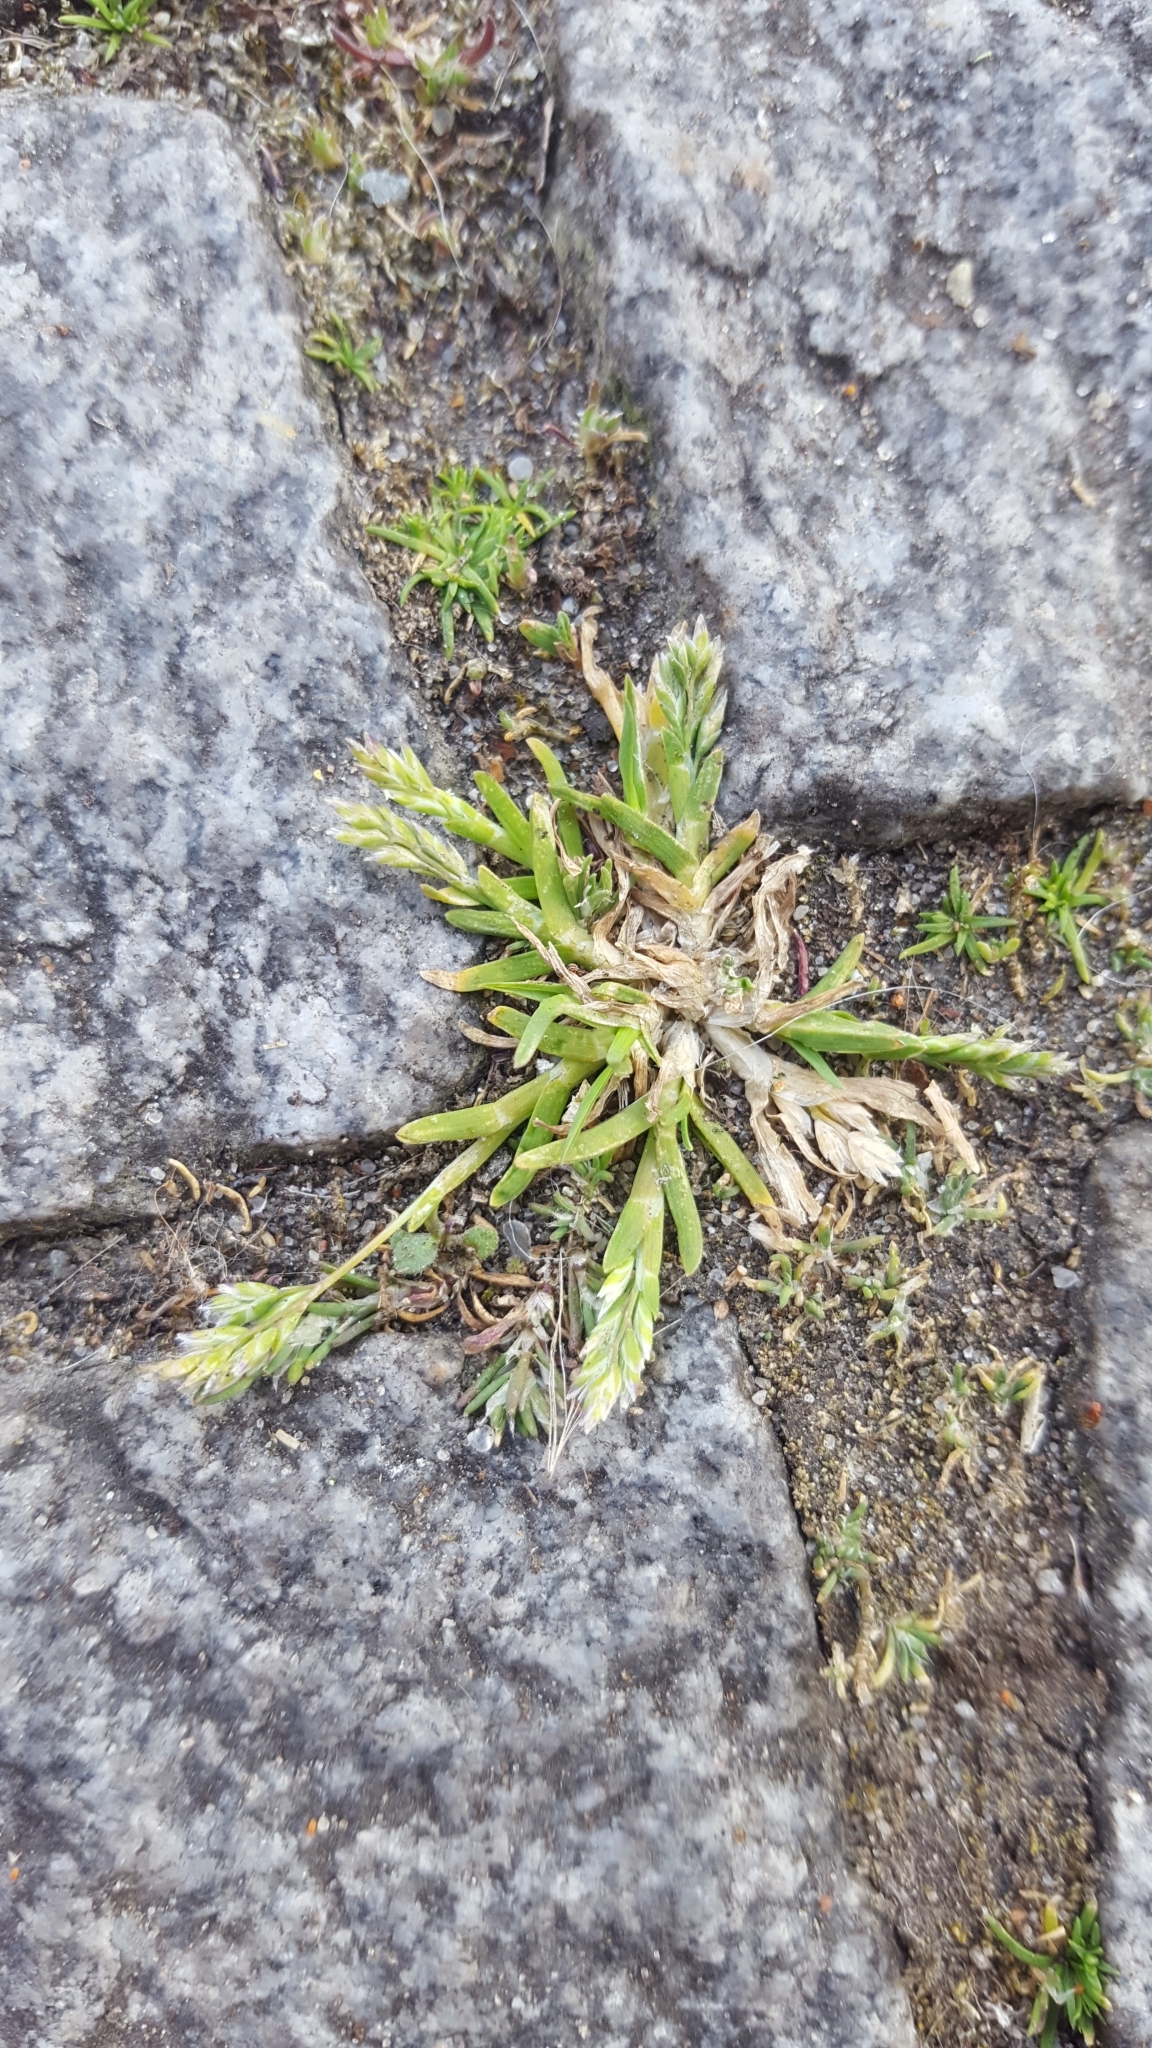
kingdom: Plantae
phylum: Tracheophyta
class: Liliopsida
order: Poales
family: Poaceae
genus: Poa
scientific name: Poa annua
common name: Annual bluegrass
